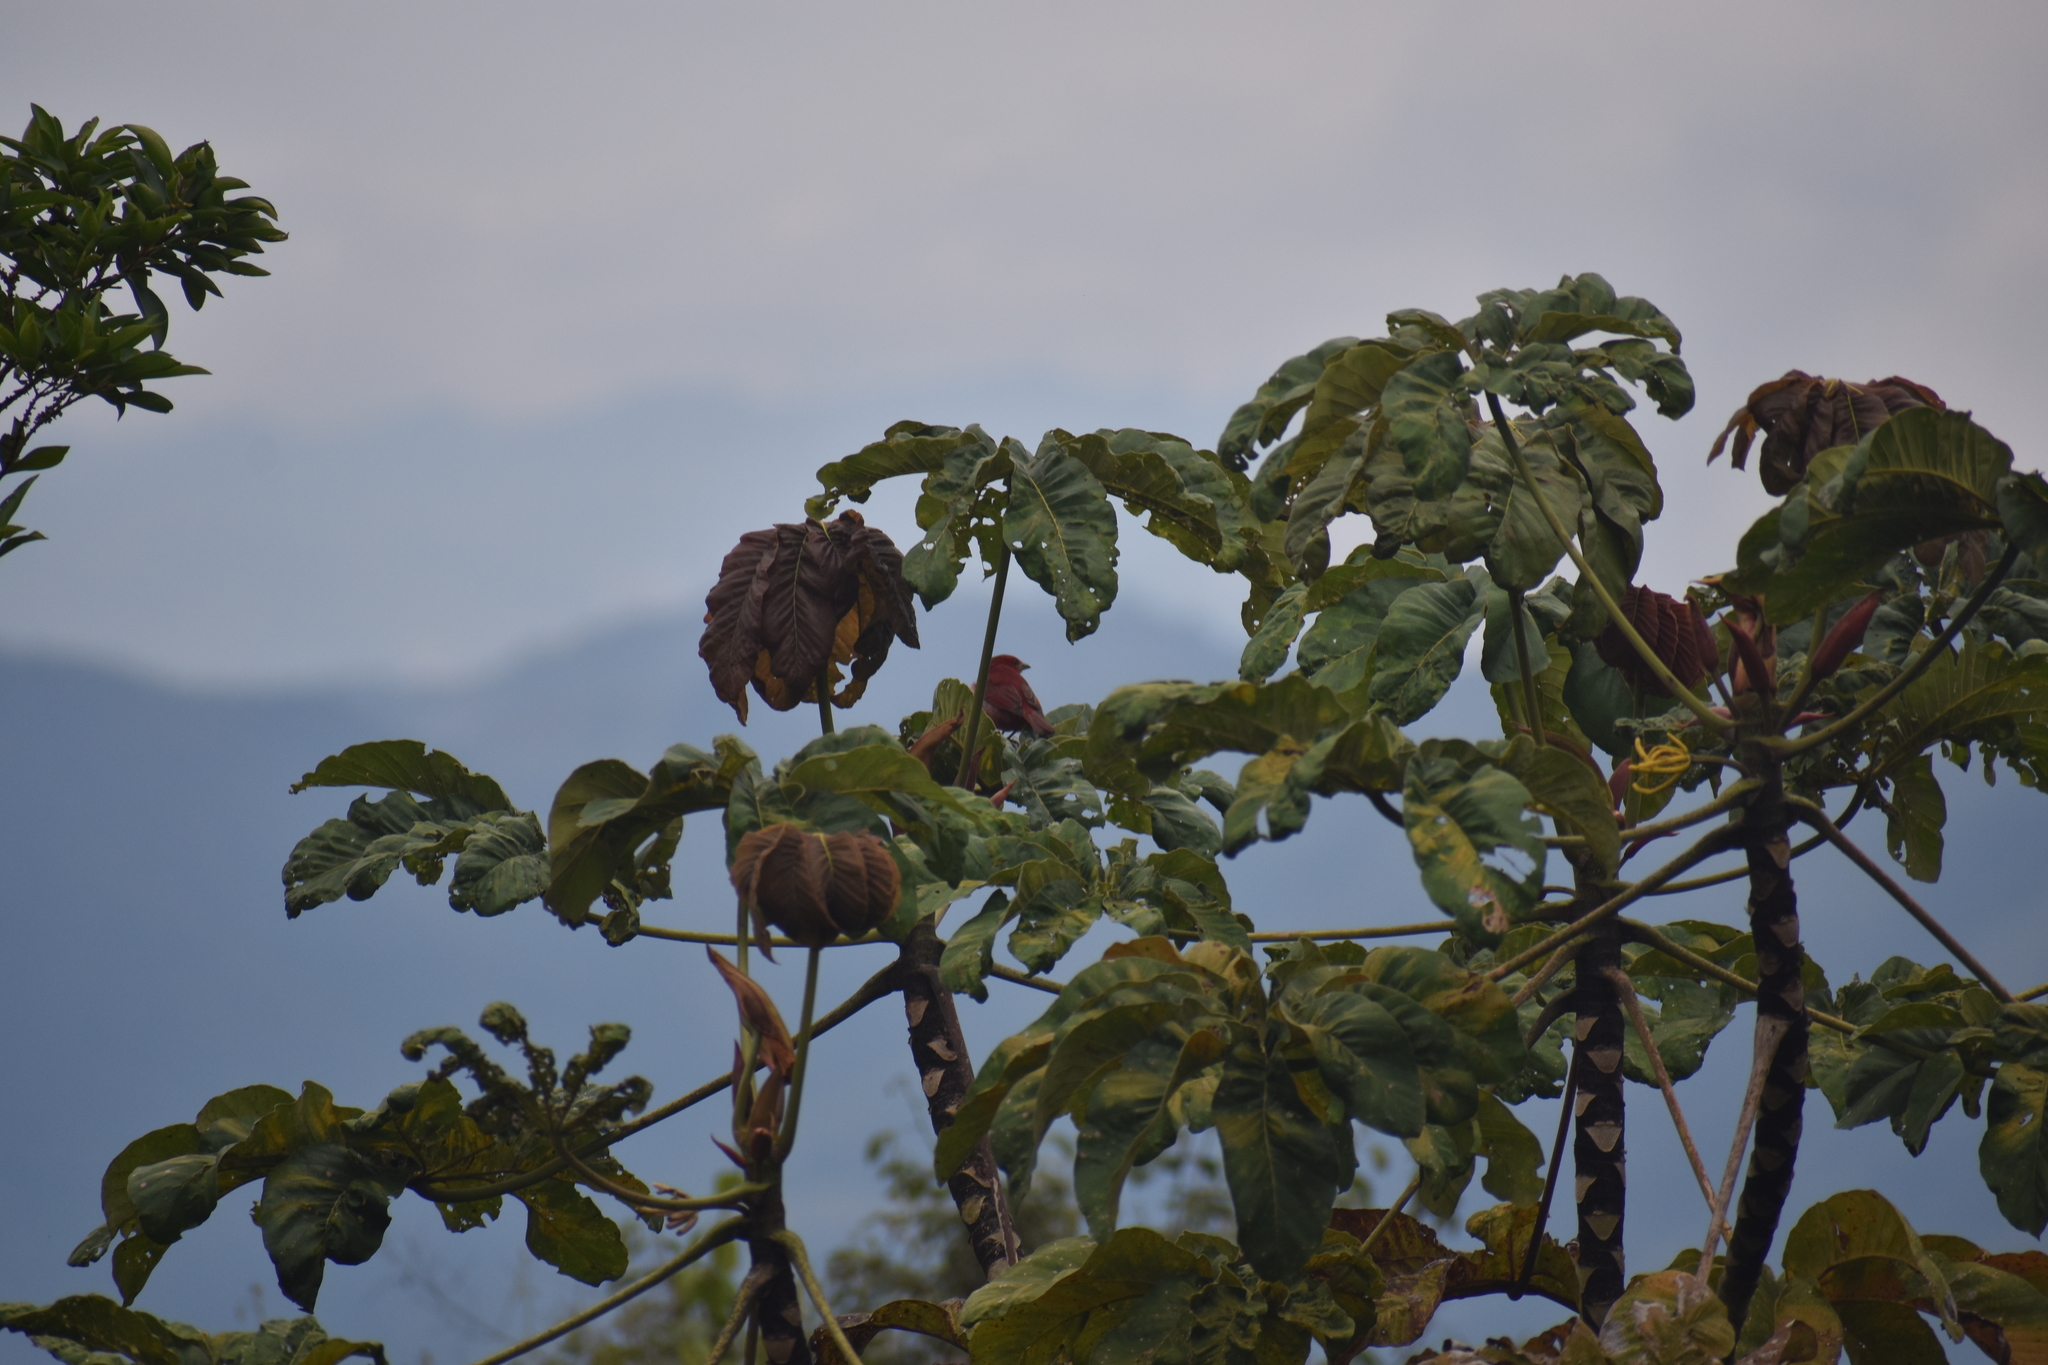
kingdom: Animalia
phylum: Chordata
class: Aves
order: Passeriformes
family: Cardinalidae
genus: Piranga
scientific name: Piranga rubra
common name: Summer tanager
